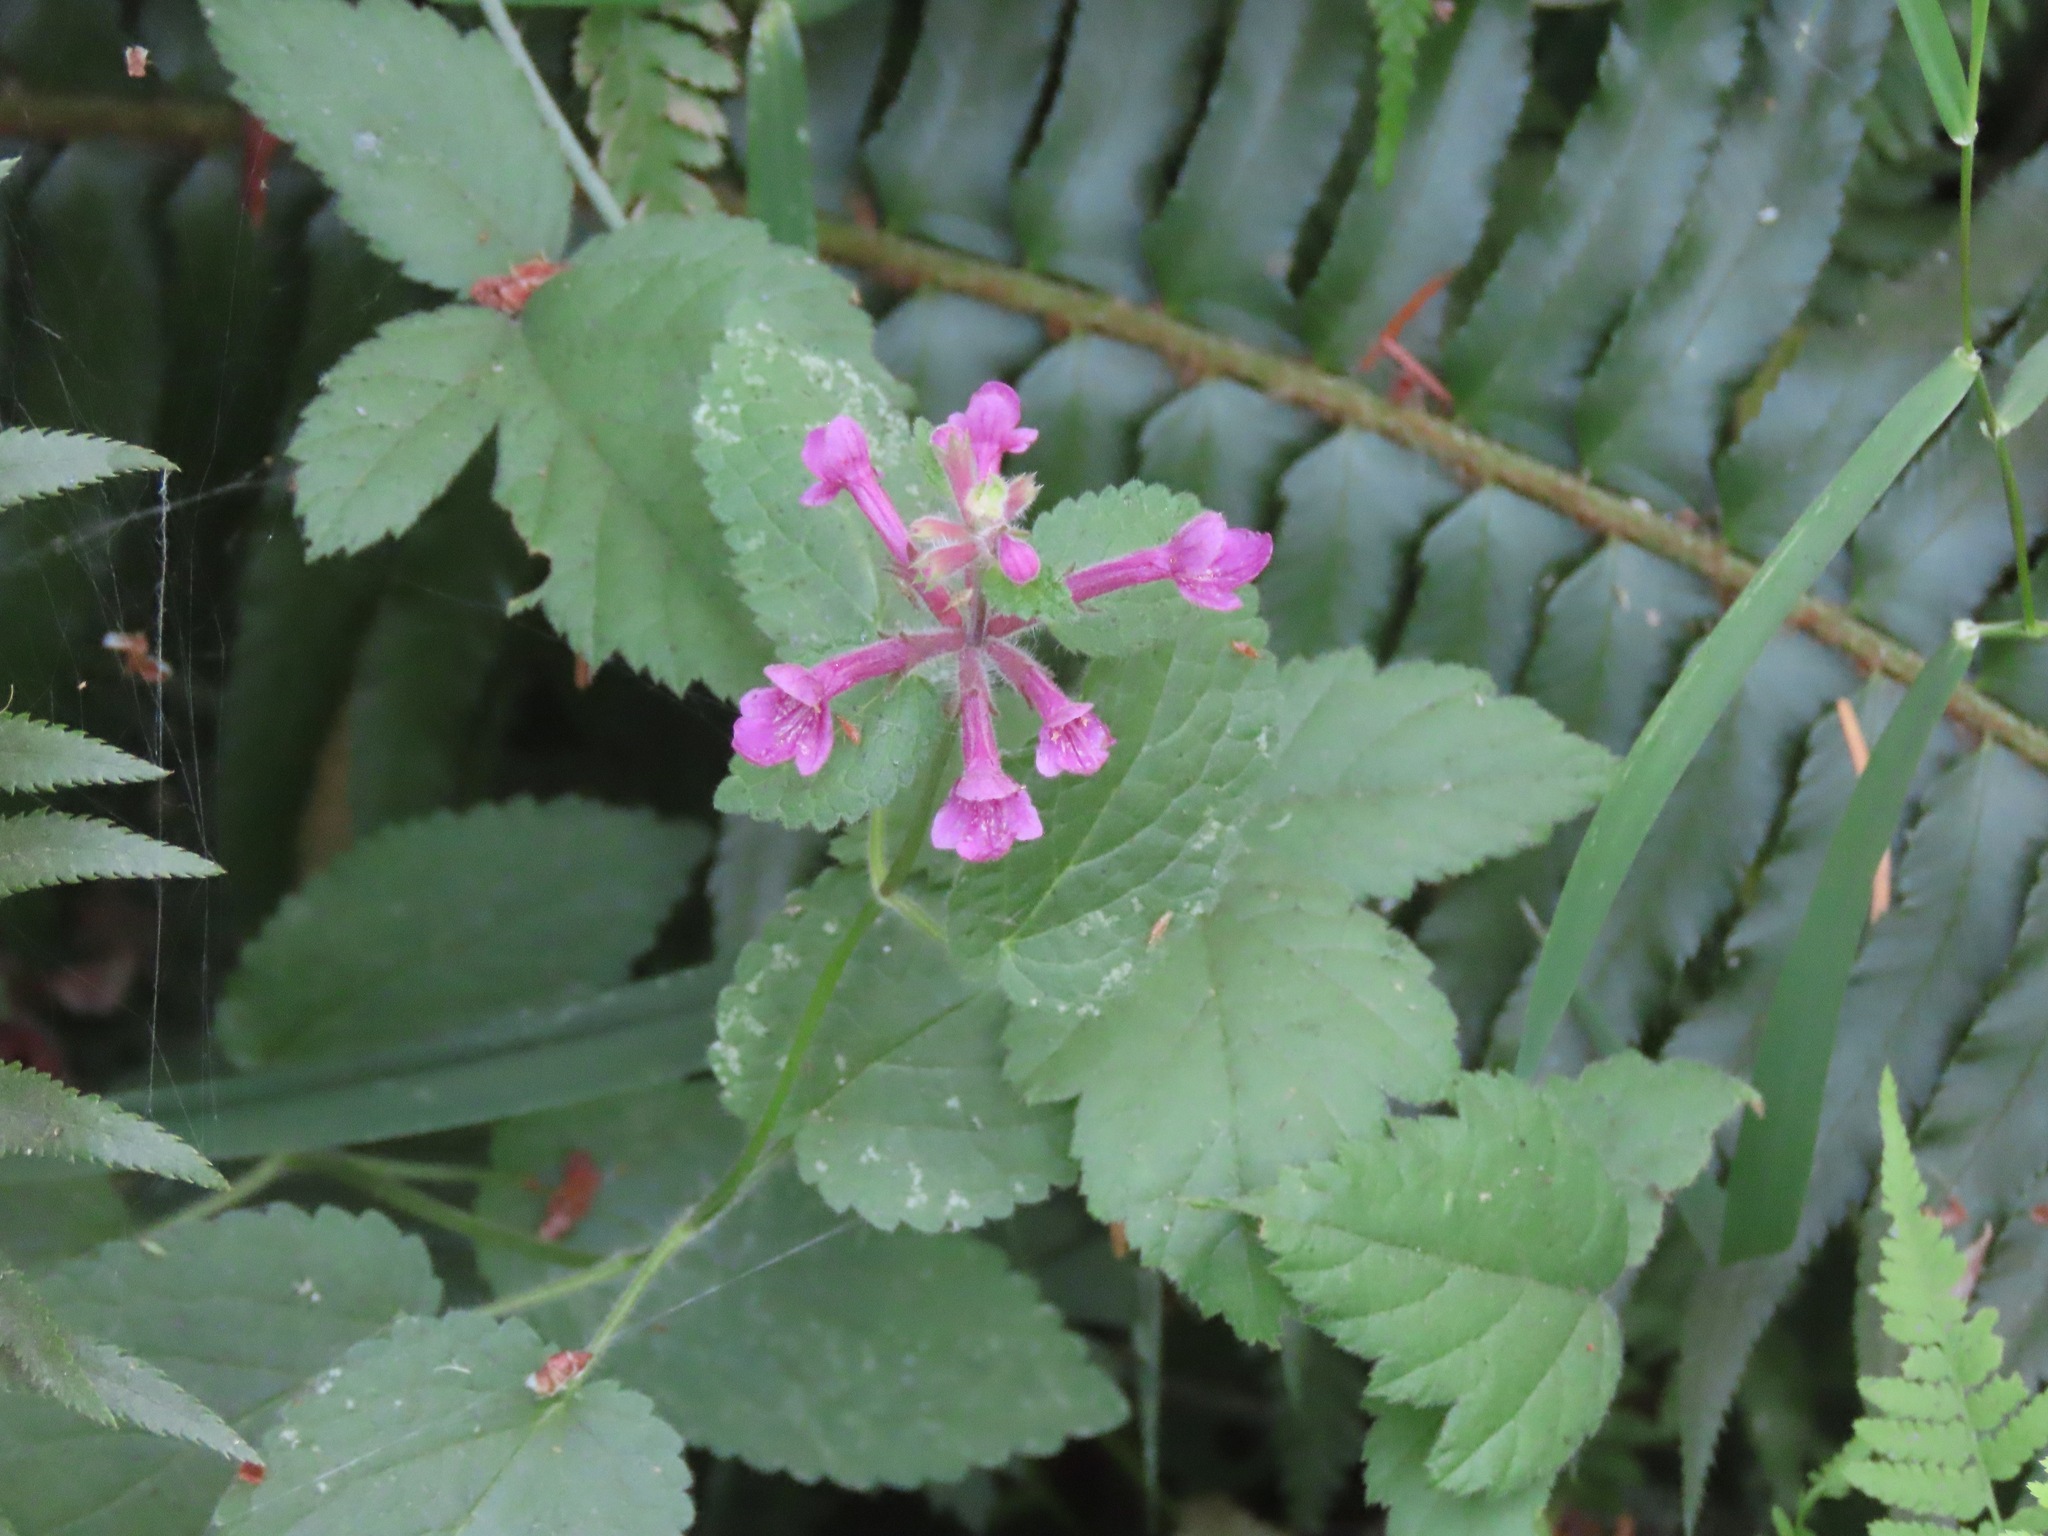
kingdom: Plantae
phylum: Tracheophyta
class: Magnoliopsida
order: Lamiales
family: Lamiaceae
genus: Stachys
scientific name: Stachys chamissonis
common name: Coastal hedge-nettle
